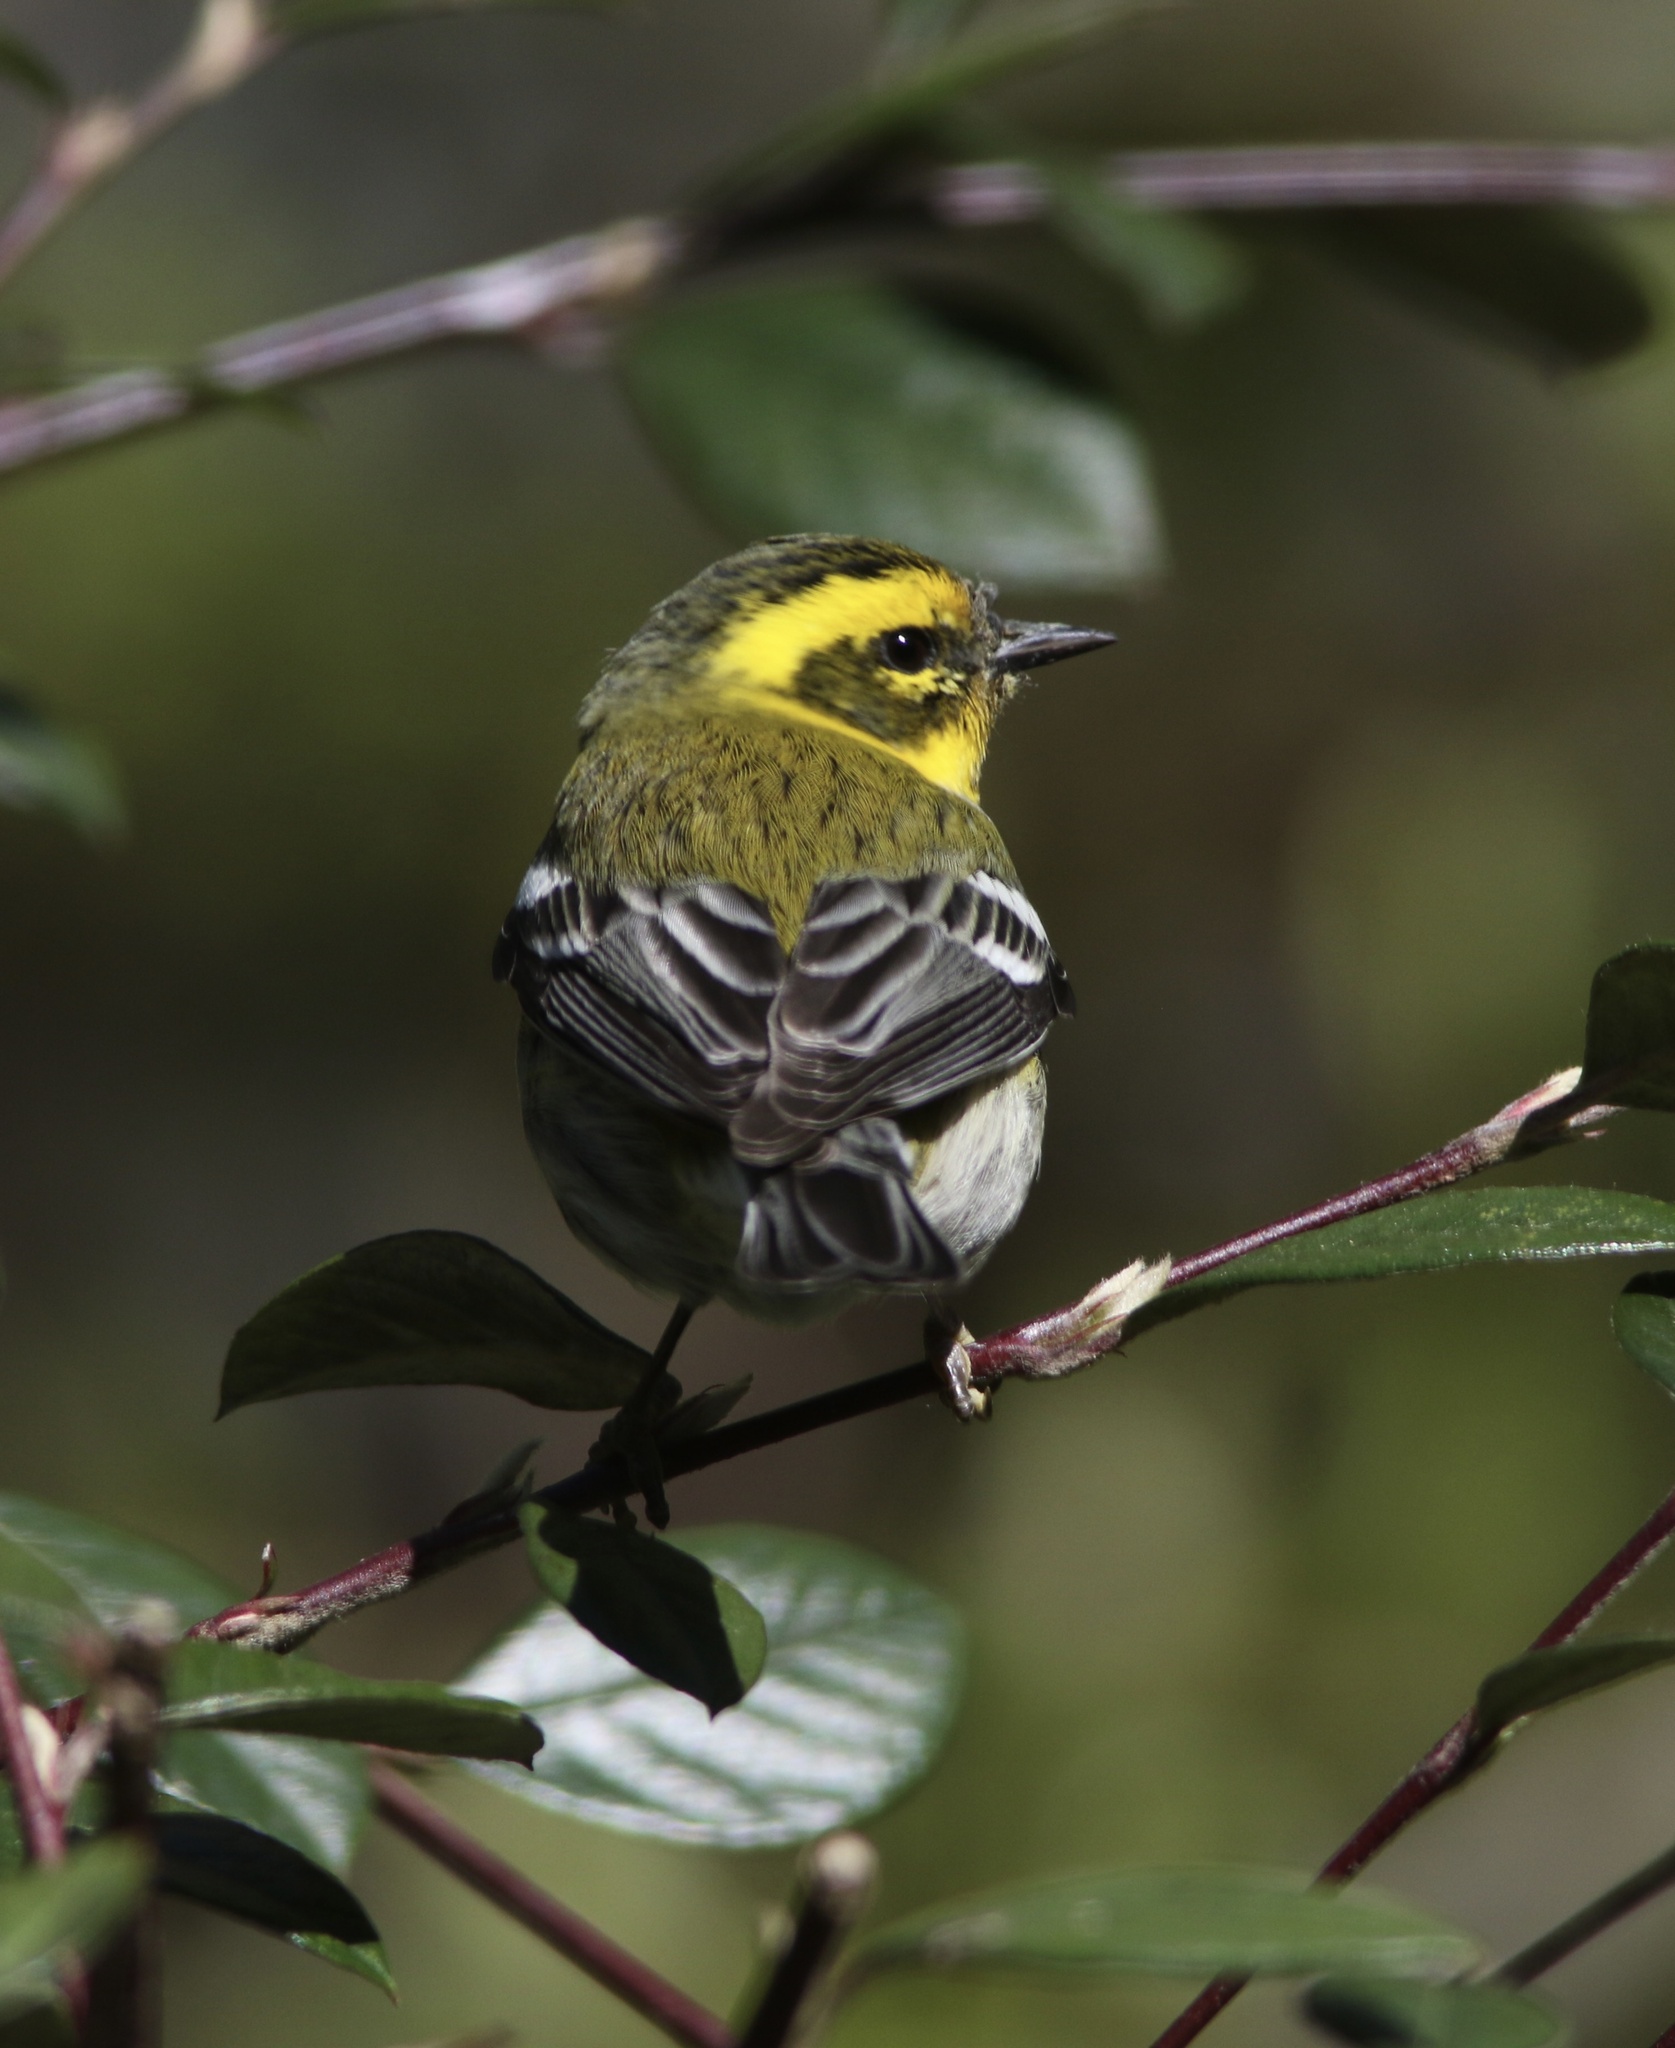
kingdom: Animalia
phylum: Chordata
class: Aves
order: Passeriformes
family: Parulidae
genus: Setophaga
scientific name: Setophaga townsendi
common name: Townsend's warbler
